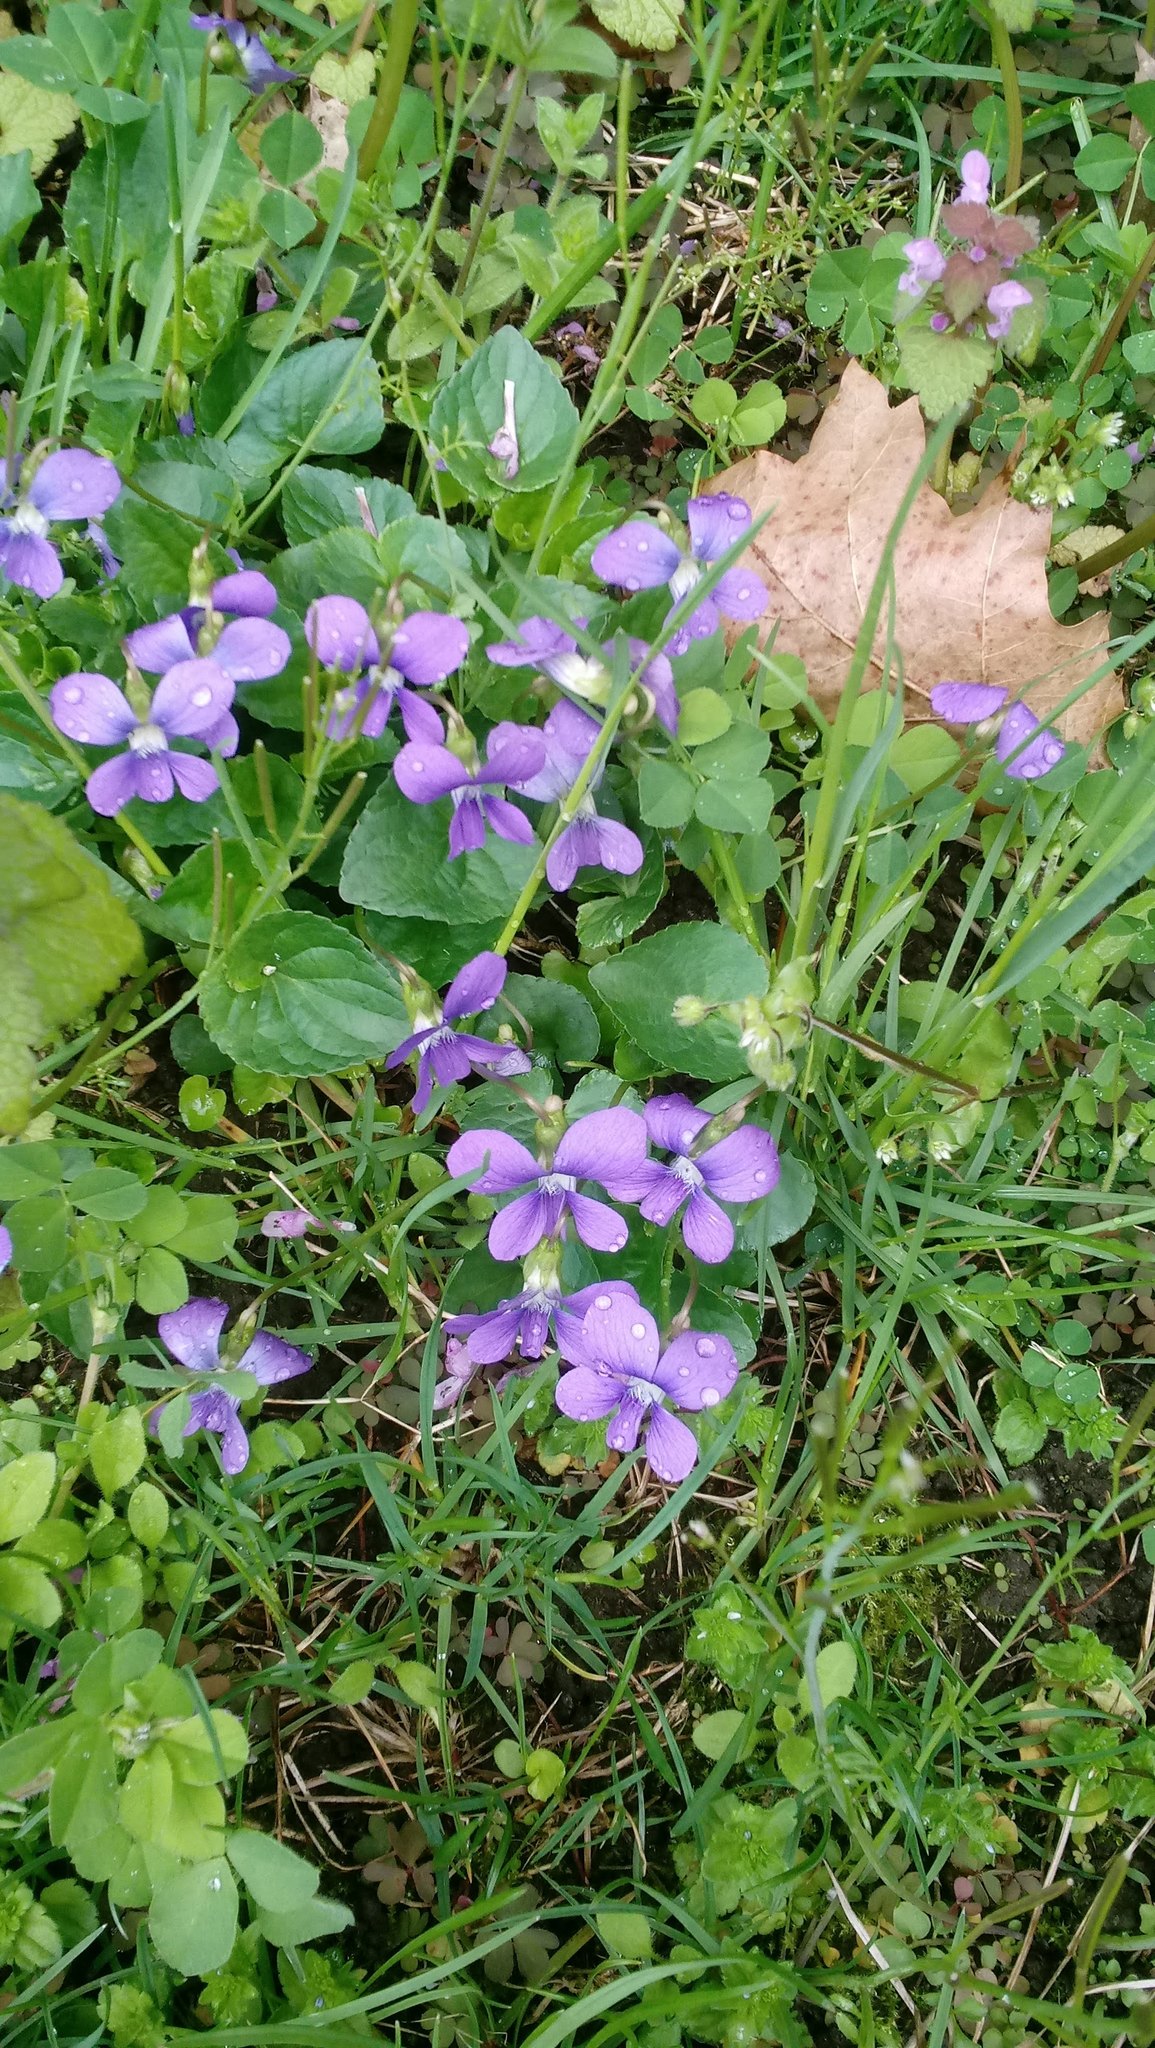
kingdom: Plantae
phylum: Tracheophyta
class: Magnoliopsida
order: Malpighiales
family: Violaceae
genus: Viola
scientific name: Viola sororia
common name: Dooryard violet
